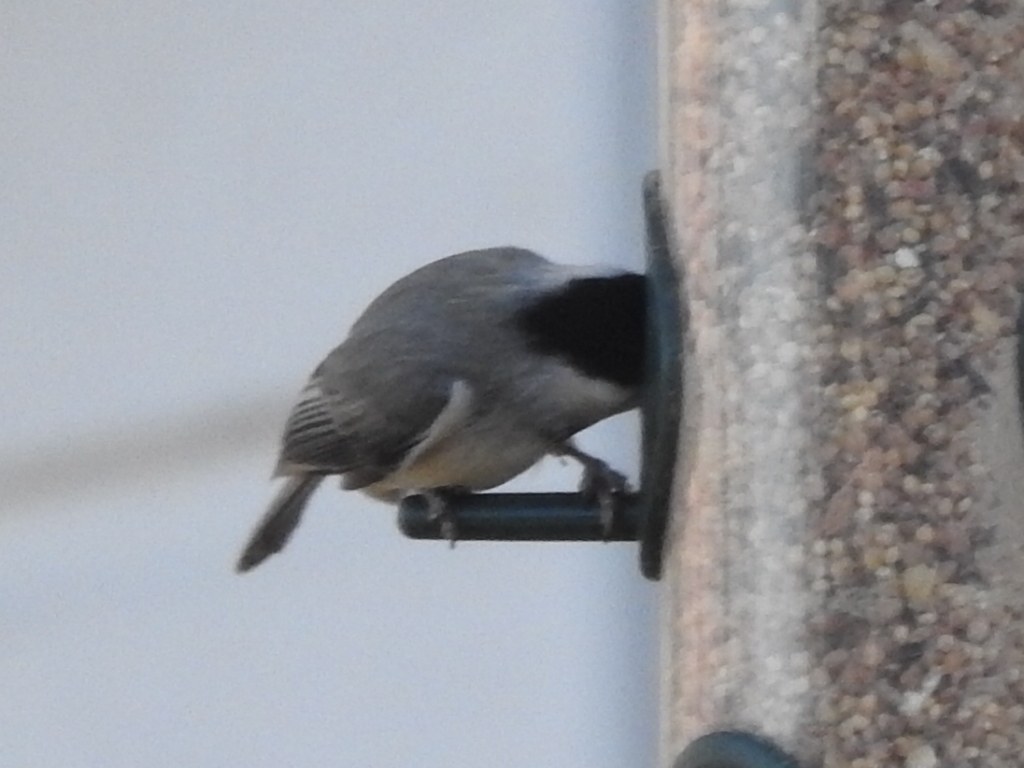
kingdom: Animalia
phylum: Chordata
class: Aves
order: Passeriformes
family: Paridae
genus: Poecile
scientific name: Poecile carolinensis
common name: Carolina chickadee
